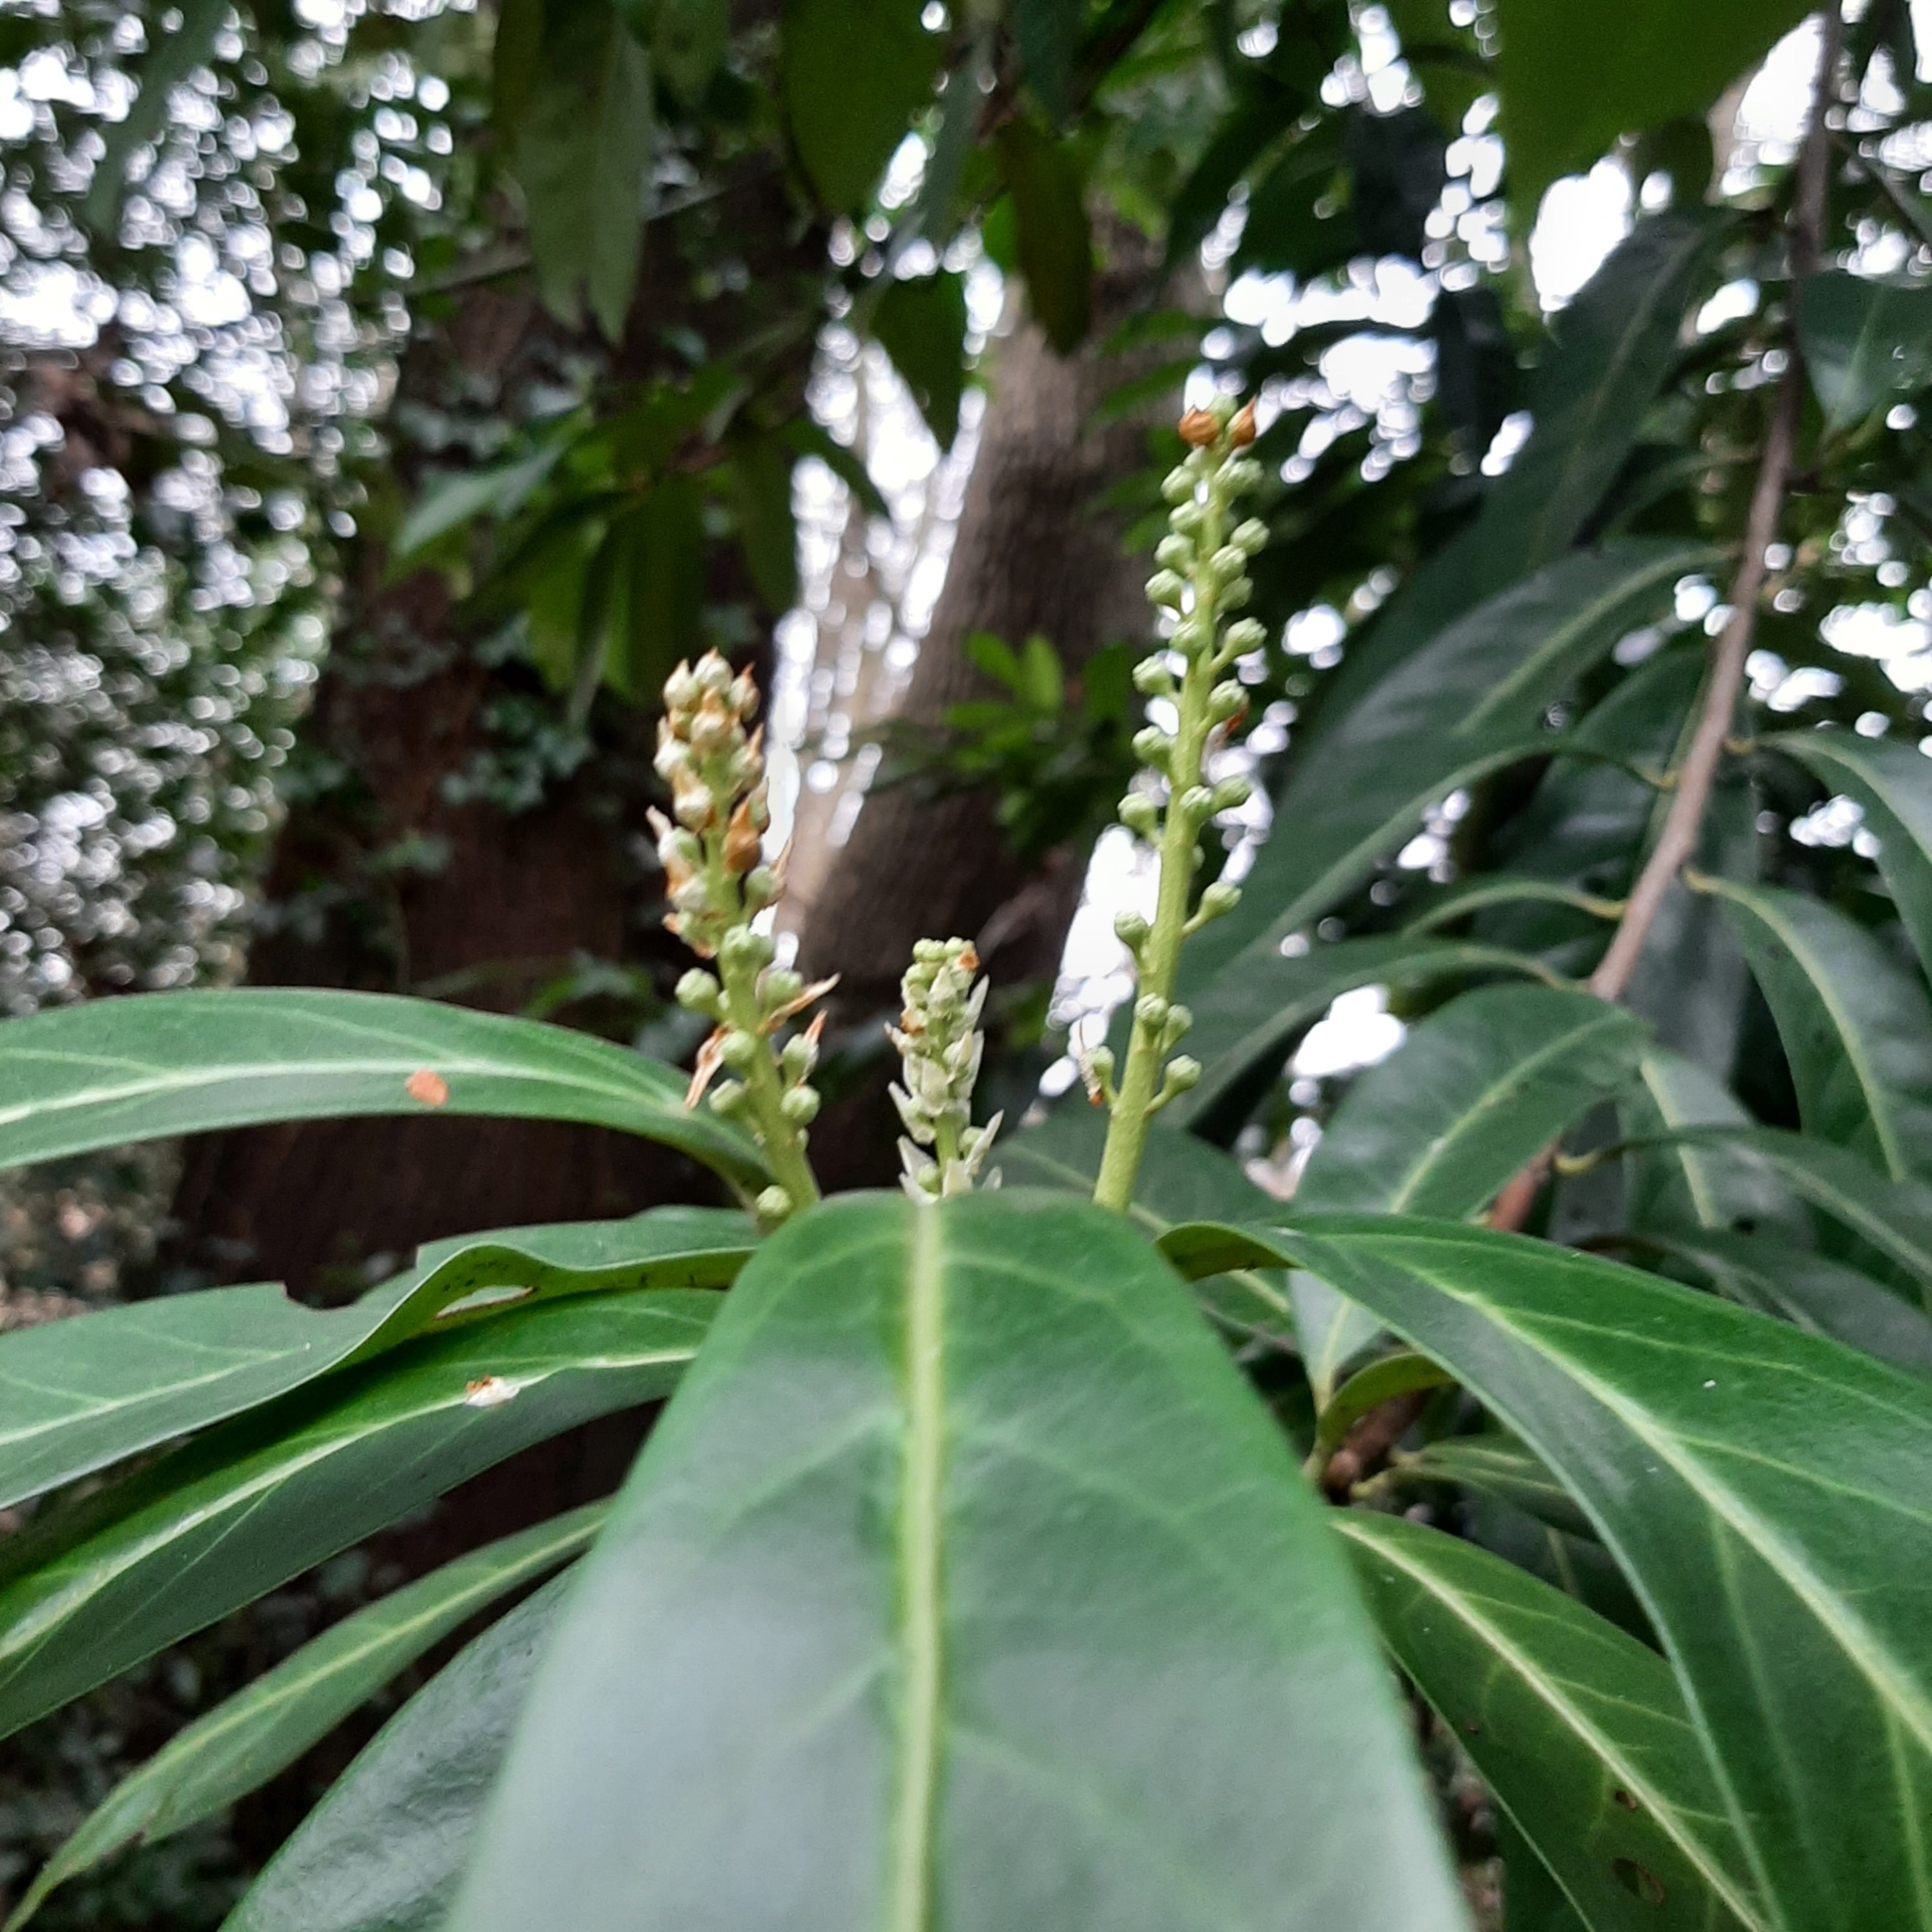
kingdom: Plantae
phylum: Tracheophyta
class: Magnoliopsida
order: Rosales
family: Rosaceae
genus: Prunus
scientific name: Prunus laurocerasus
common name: Cherry laurel
